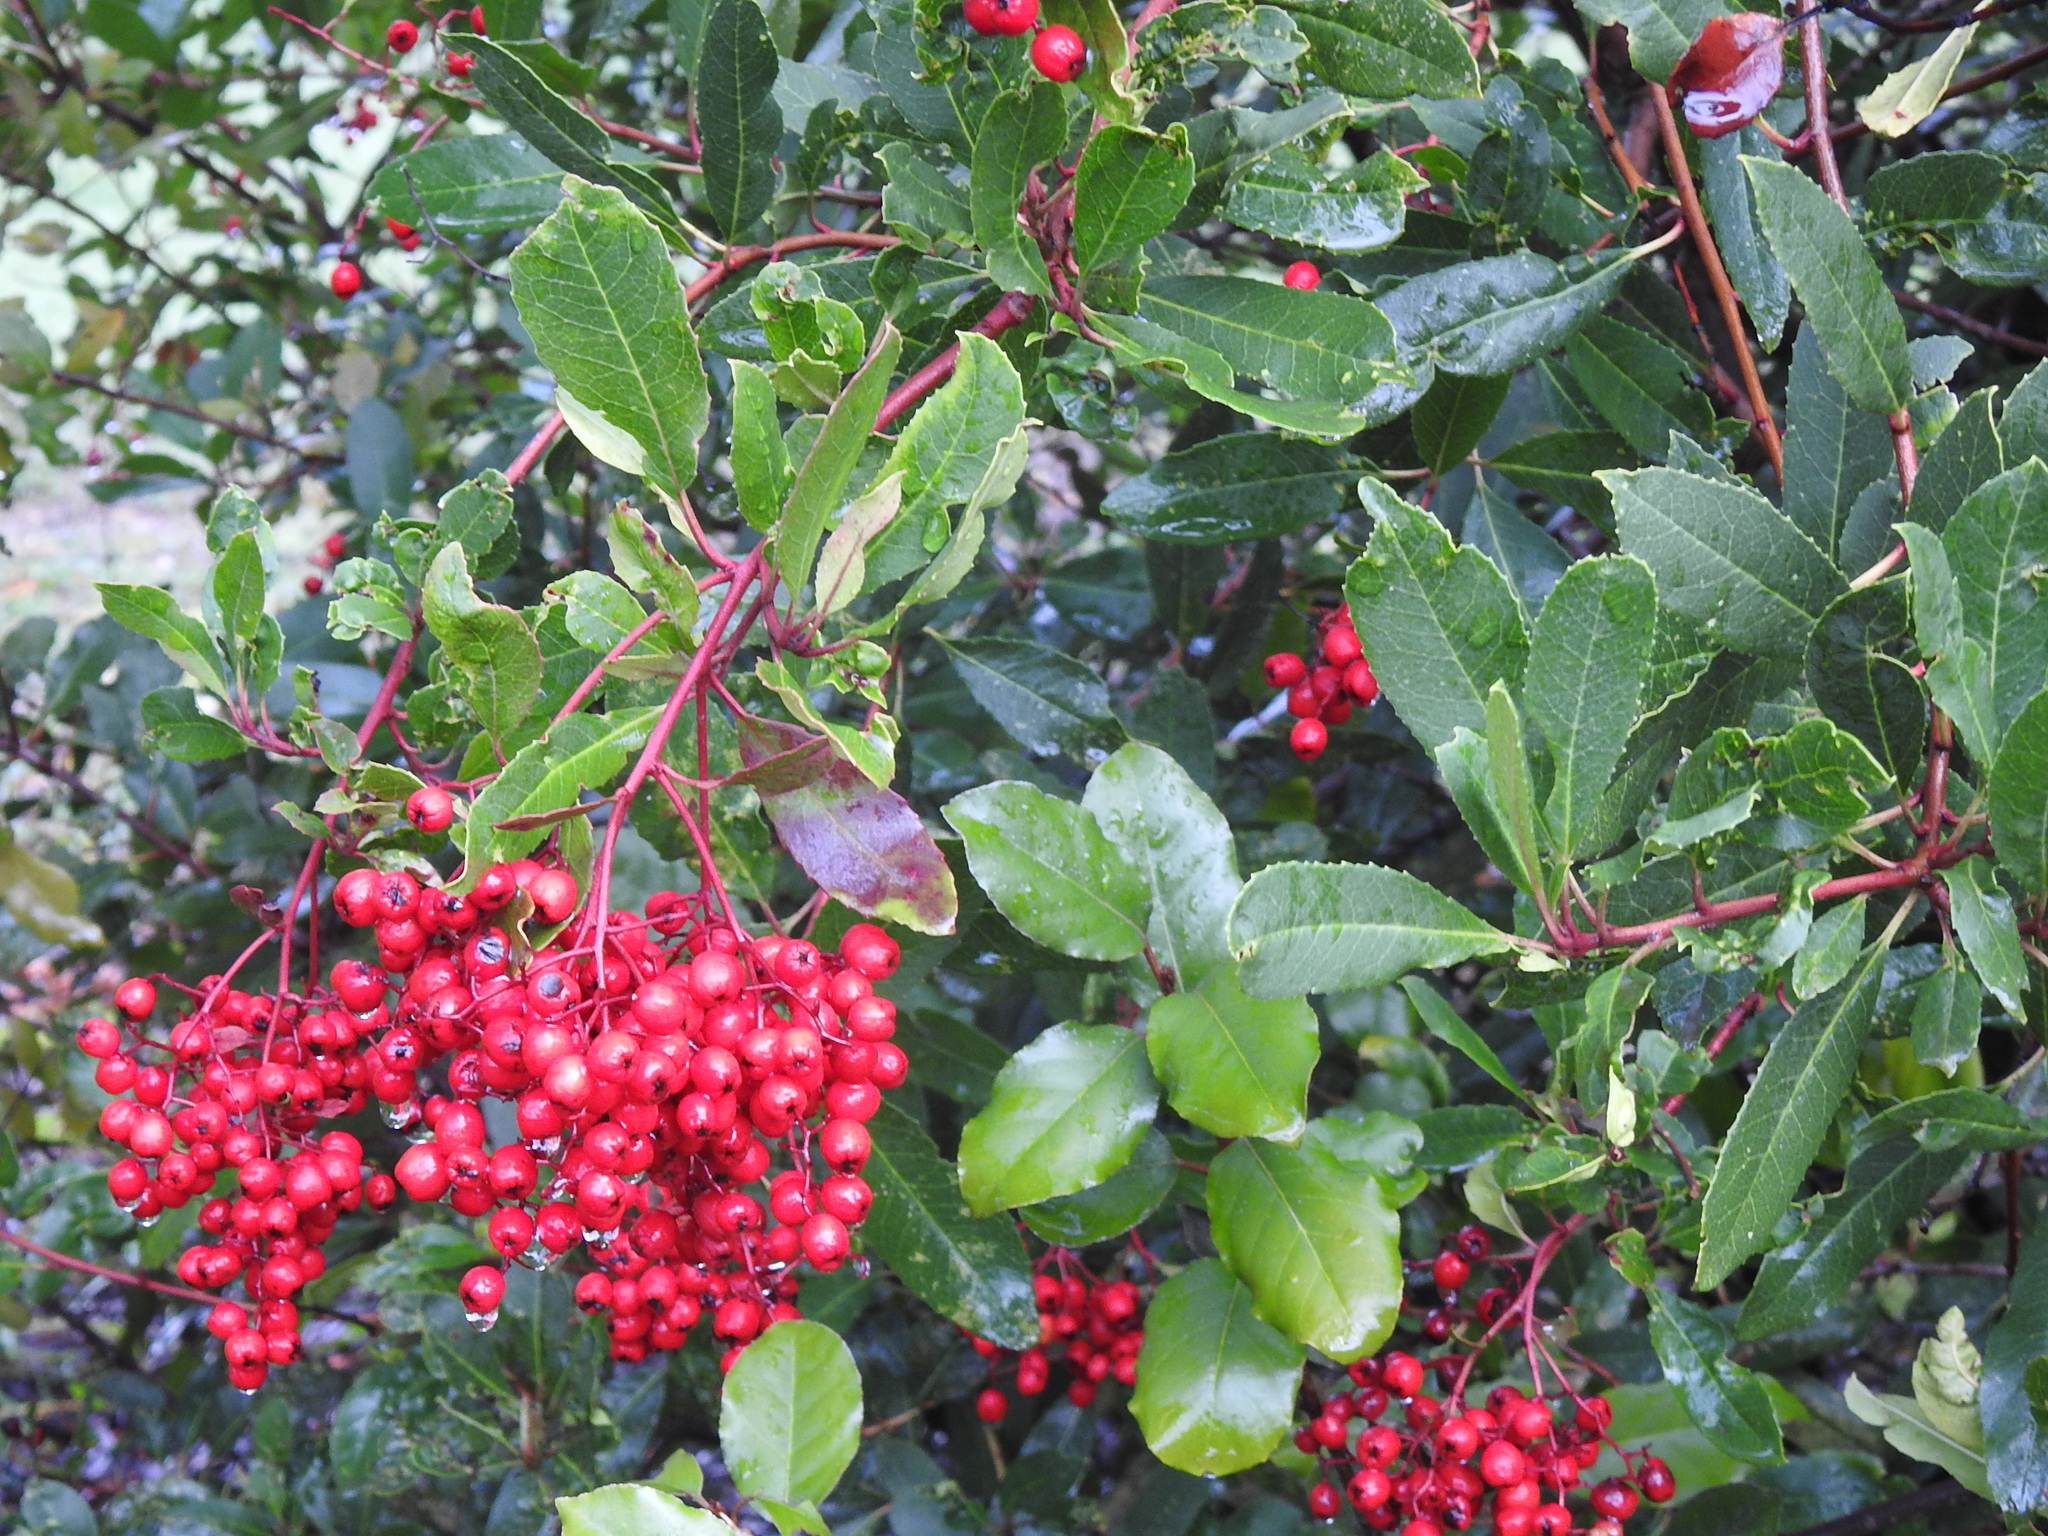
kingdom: Plantae
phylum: Tracheophyta
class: Magnoliopsida
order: Rosales
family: Rosaceae
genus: Heteromeles
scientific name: Heteromeles arbutifolia
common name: California-holly
